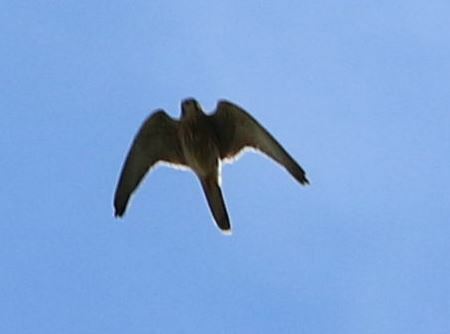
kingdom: Animalia
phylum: Chordata
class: Aves
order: Falconiformes
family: Falconidae
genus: Falco
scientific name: Falco tinnunculus
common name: Common kestrel
